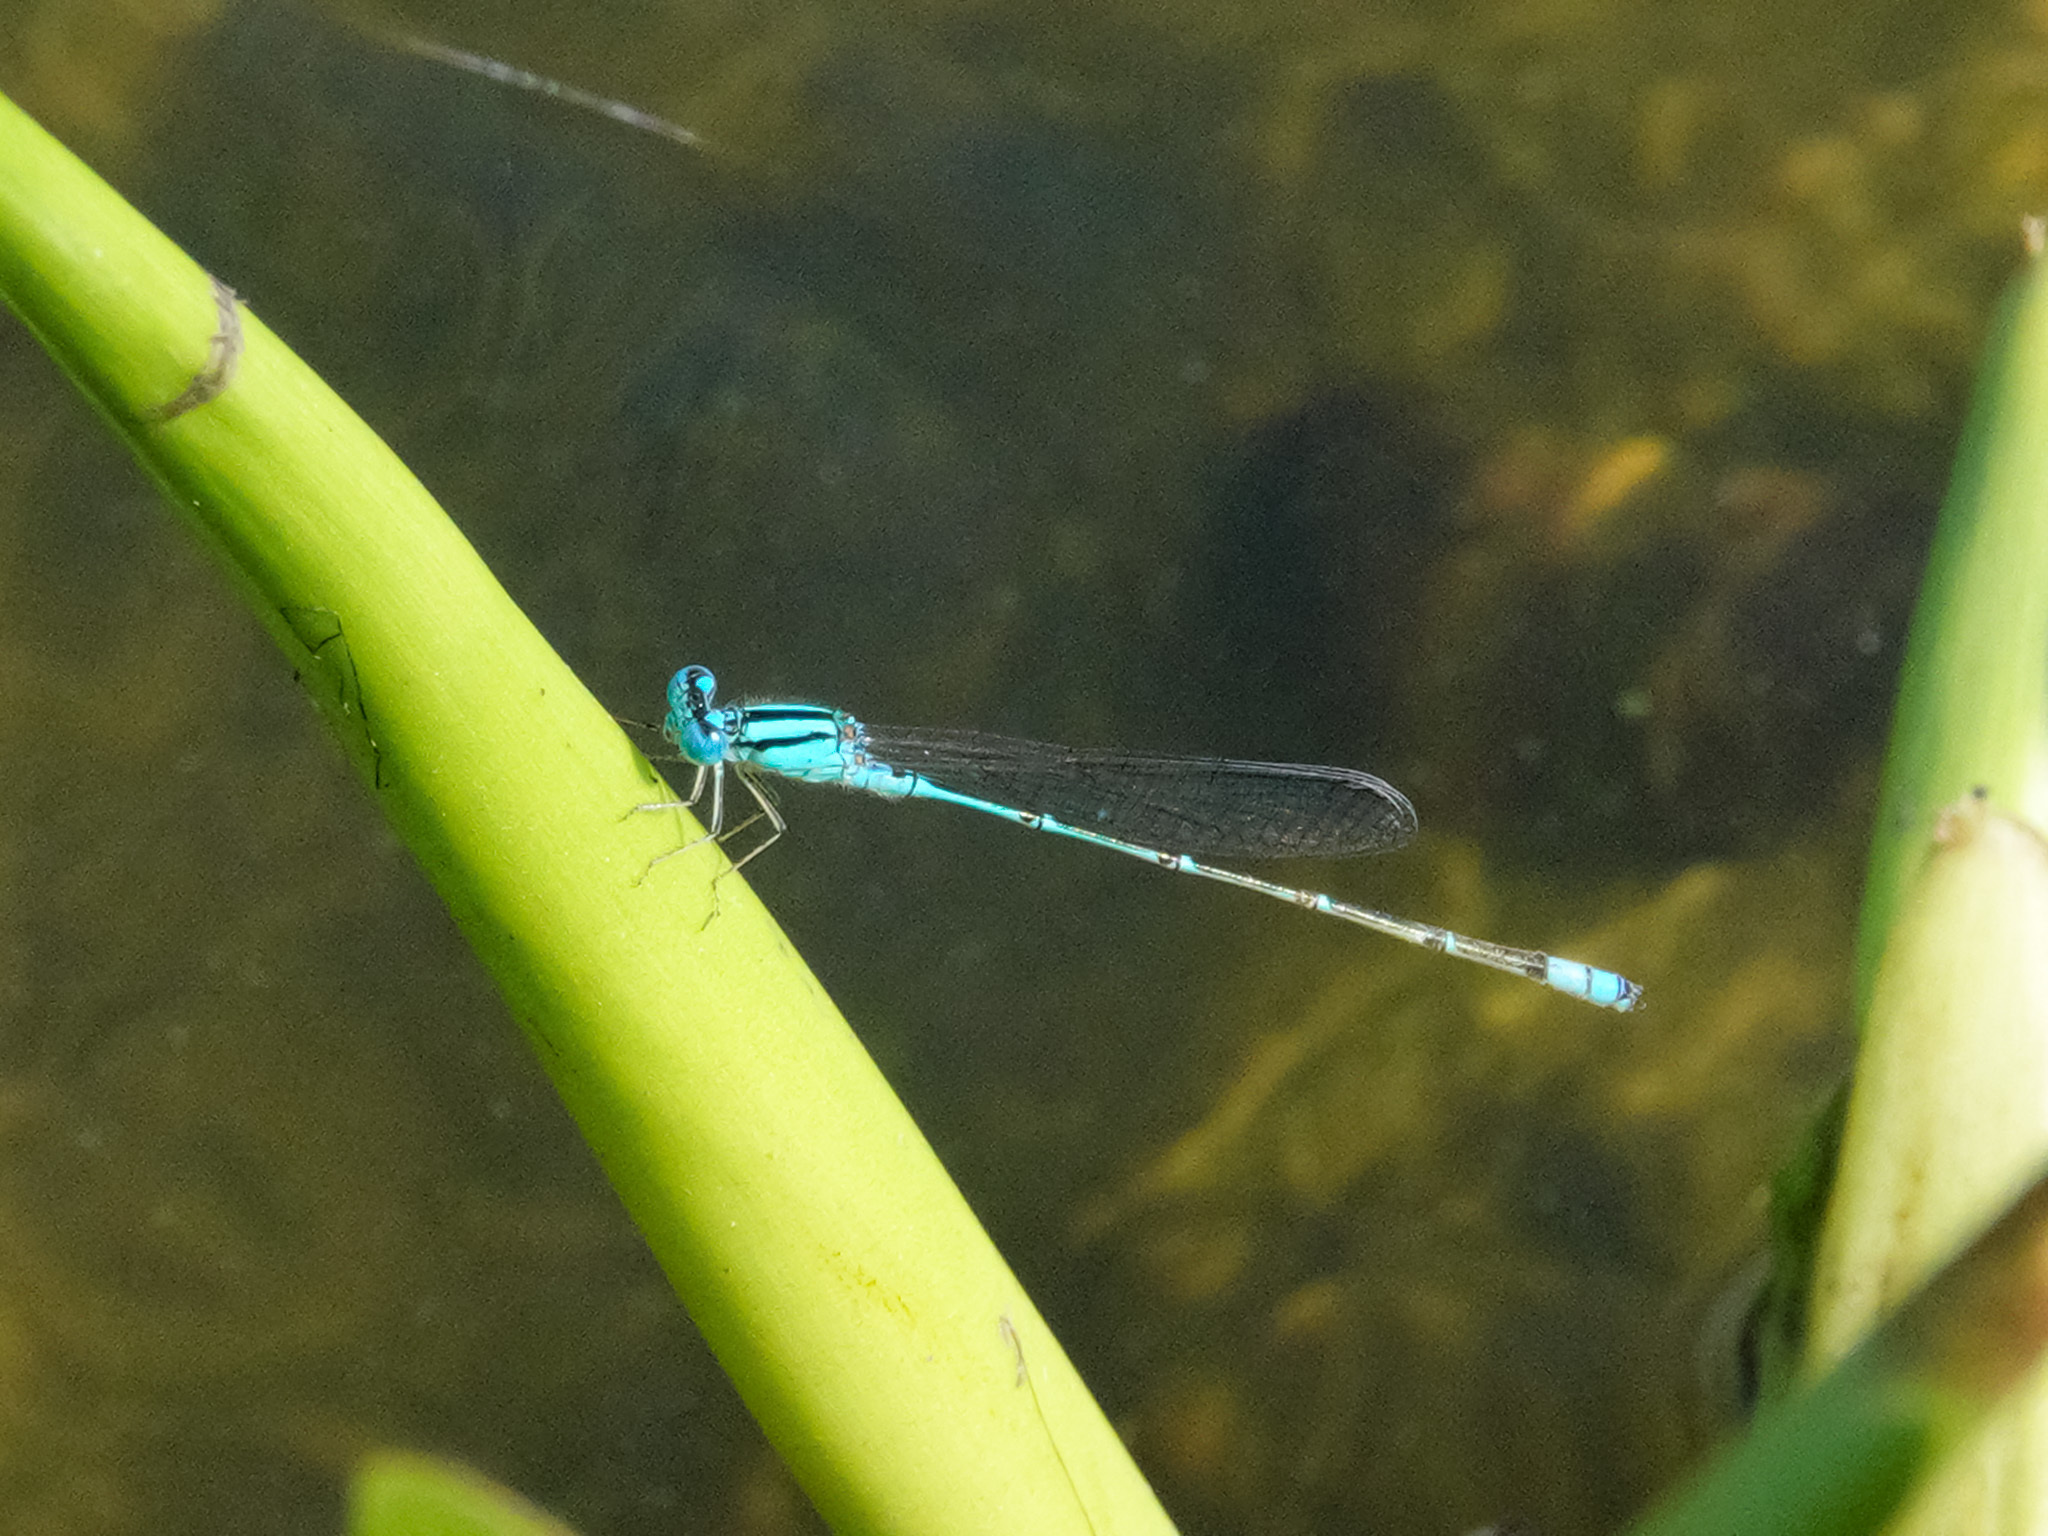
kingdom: Animalia
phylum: Arthropoda
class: Insecta
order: Odonata
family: Coenagrionidae
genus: Pseudagrion
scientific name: Pseudagrion microcephalum
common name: Blue riverdamsel
